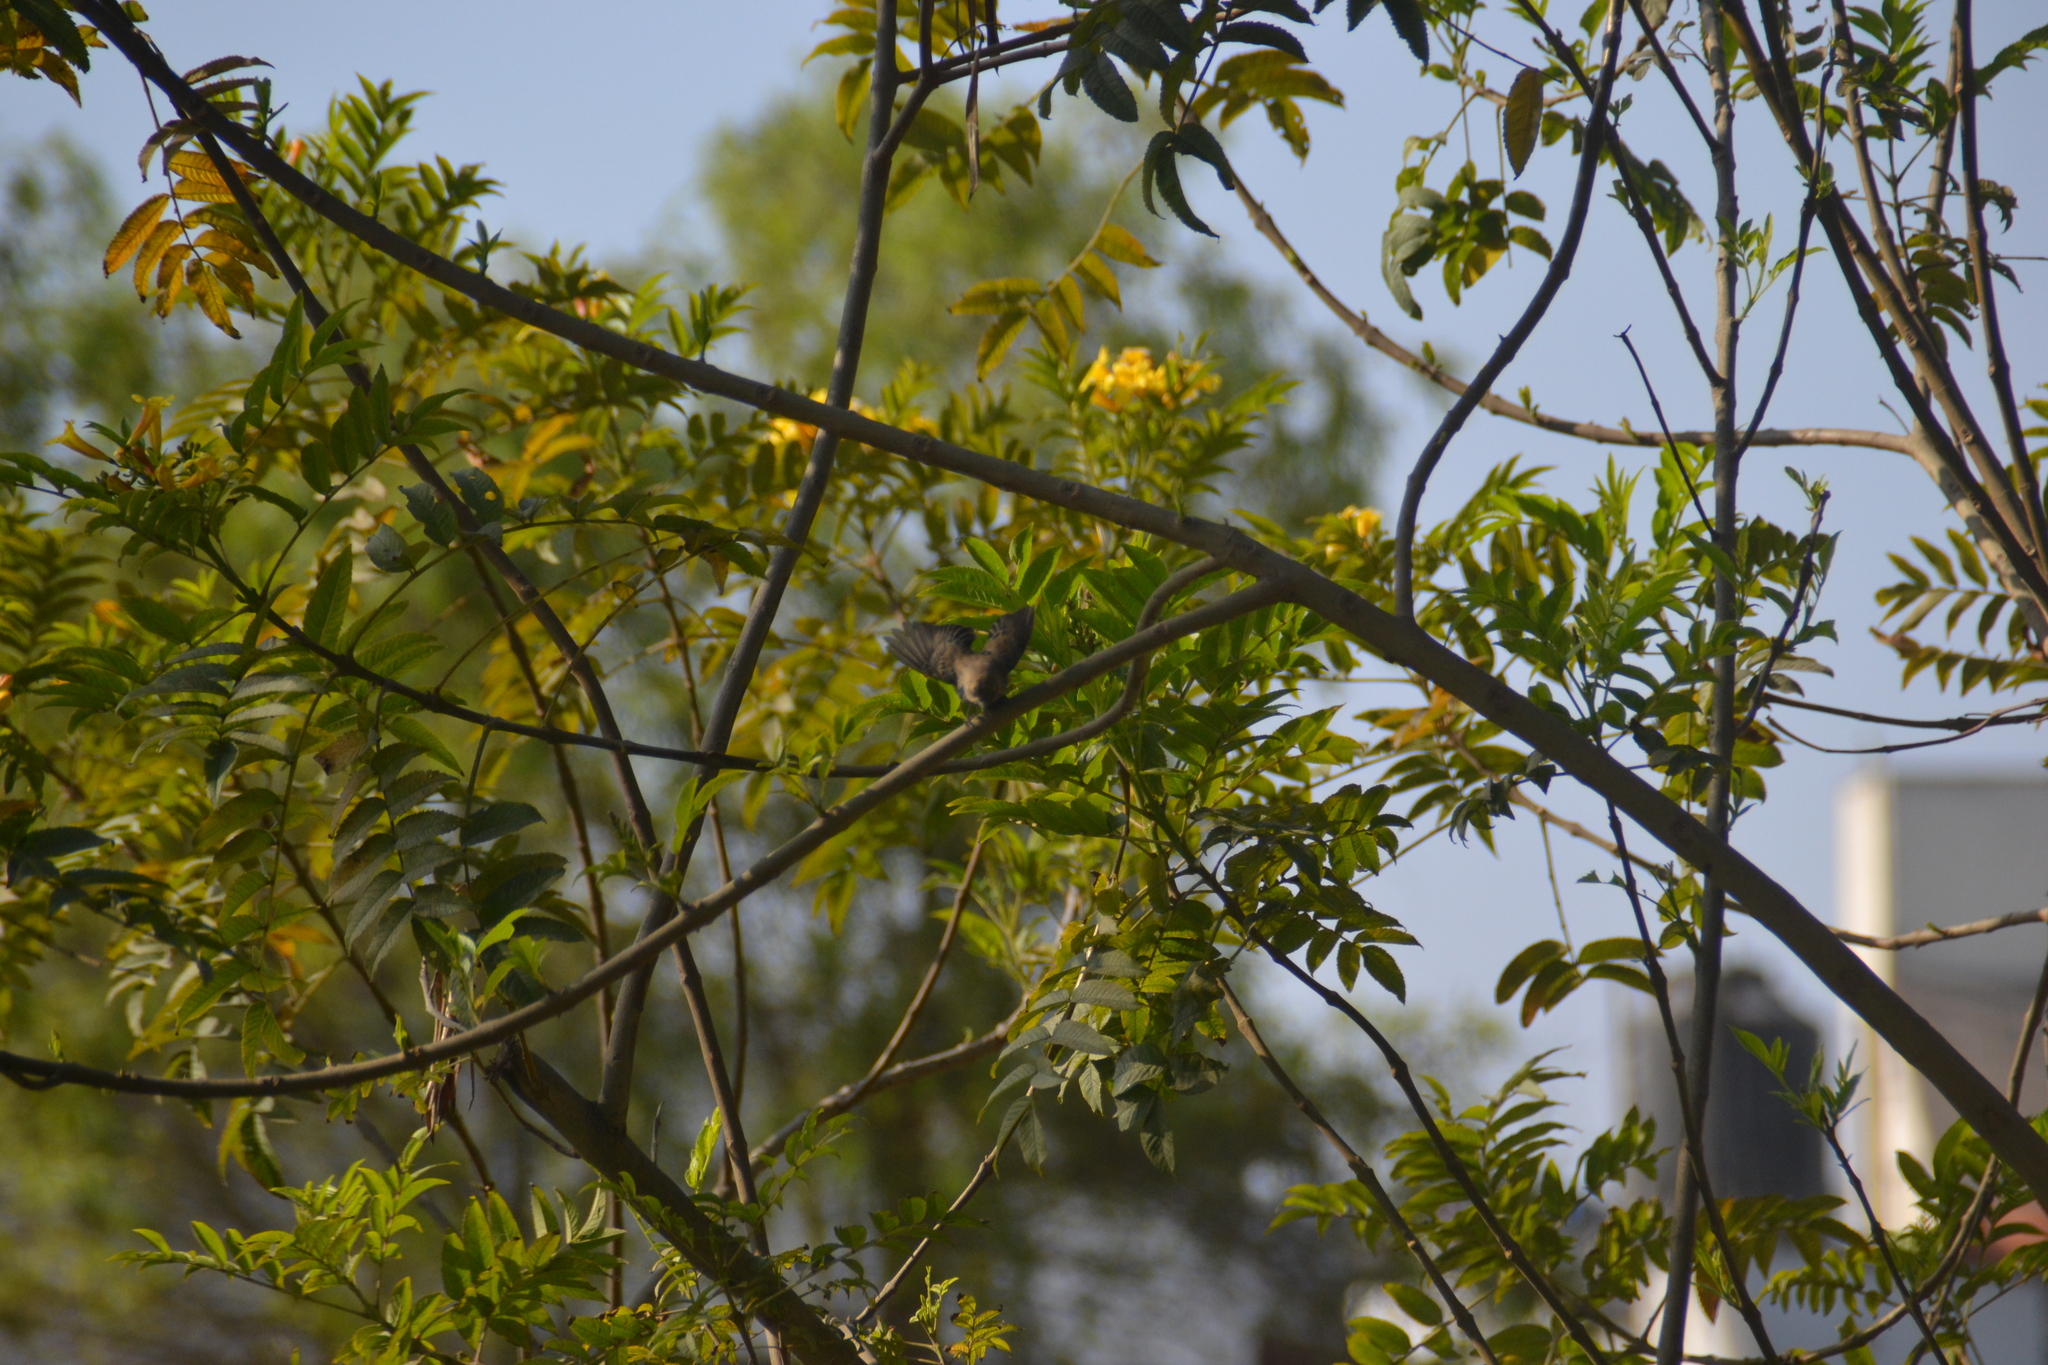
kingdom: Animalia
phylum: Chordata
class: Aves
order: Passeriformes
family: Troglodytidae
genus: Troglodytes
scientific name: Troglodytes aedon
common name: House wren
